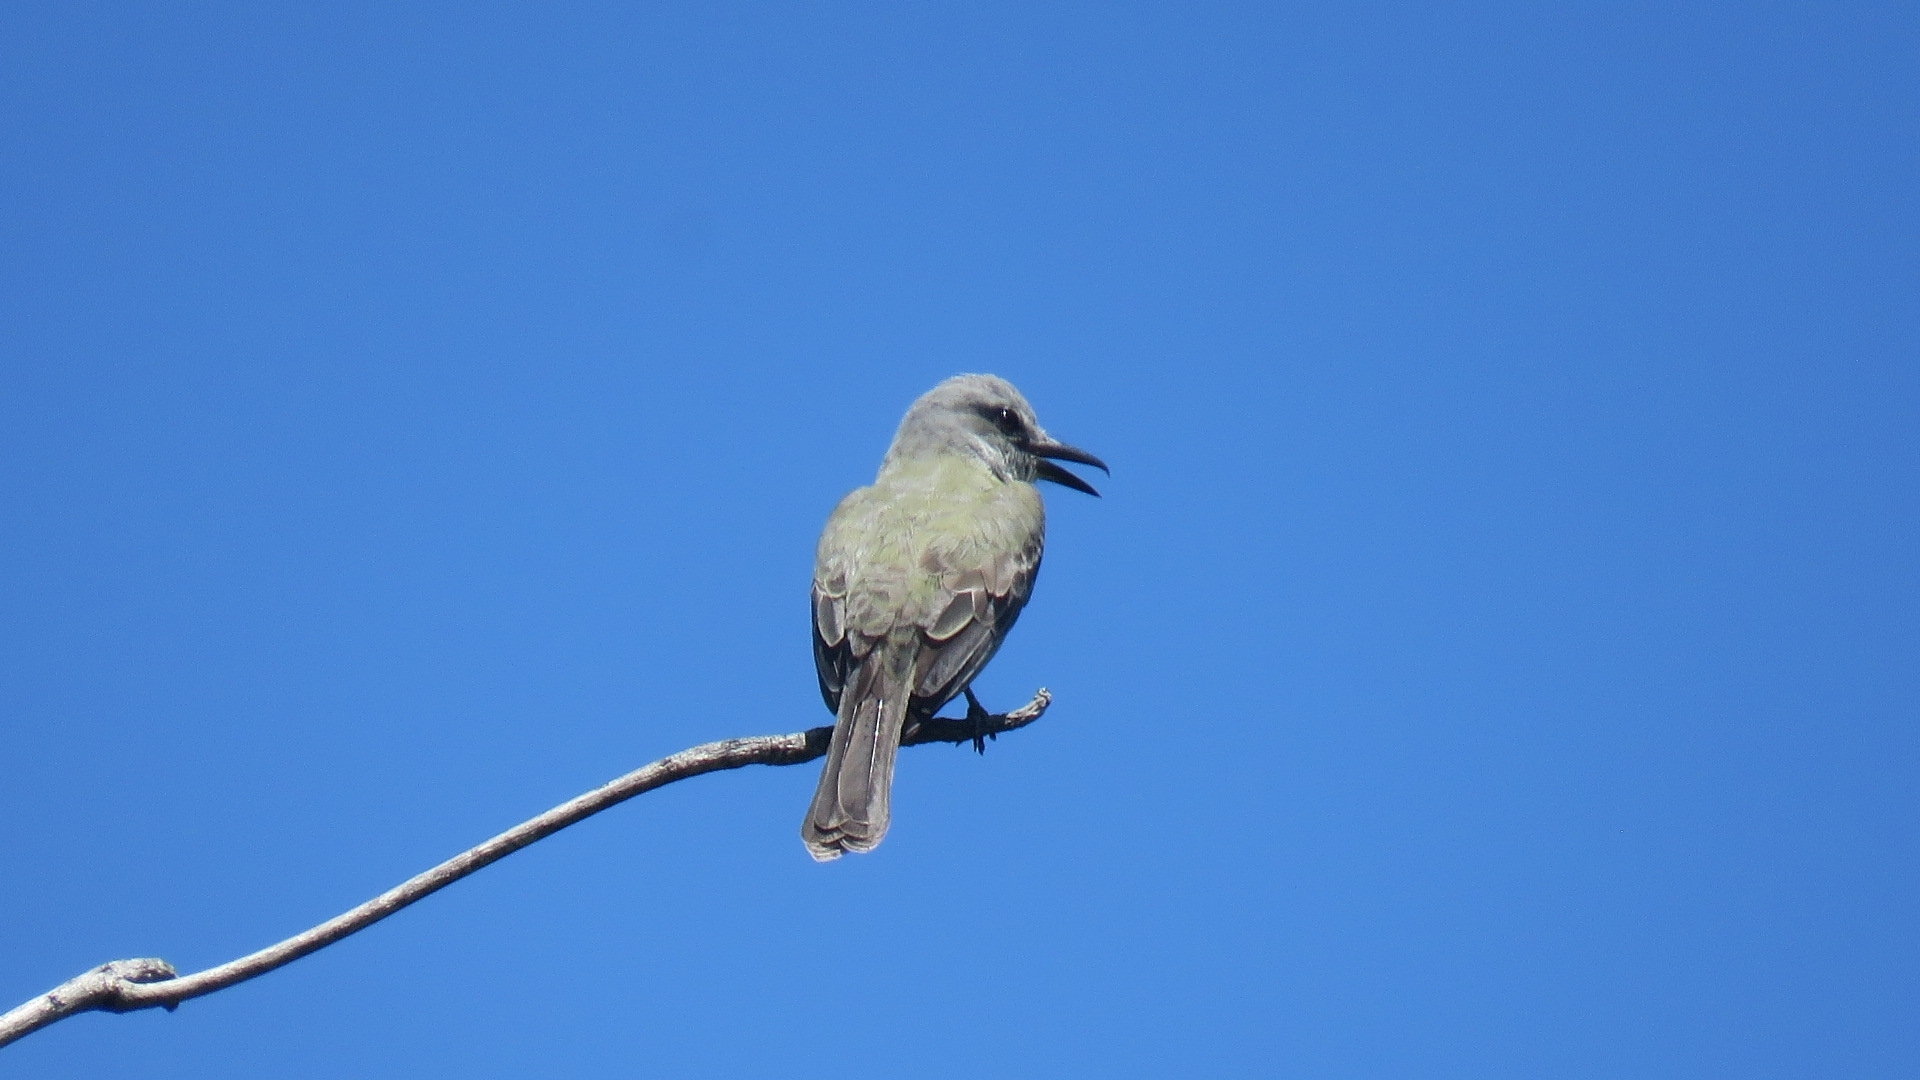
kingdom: Animalia
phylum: Chordata
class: Aves
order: Passeriformes
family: Tyrannidae
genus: Tyrannus
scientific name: Tyrannus melancholicus
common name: Tropical kingbird
